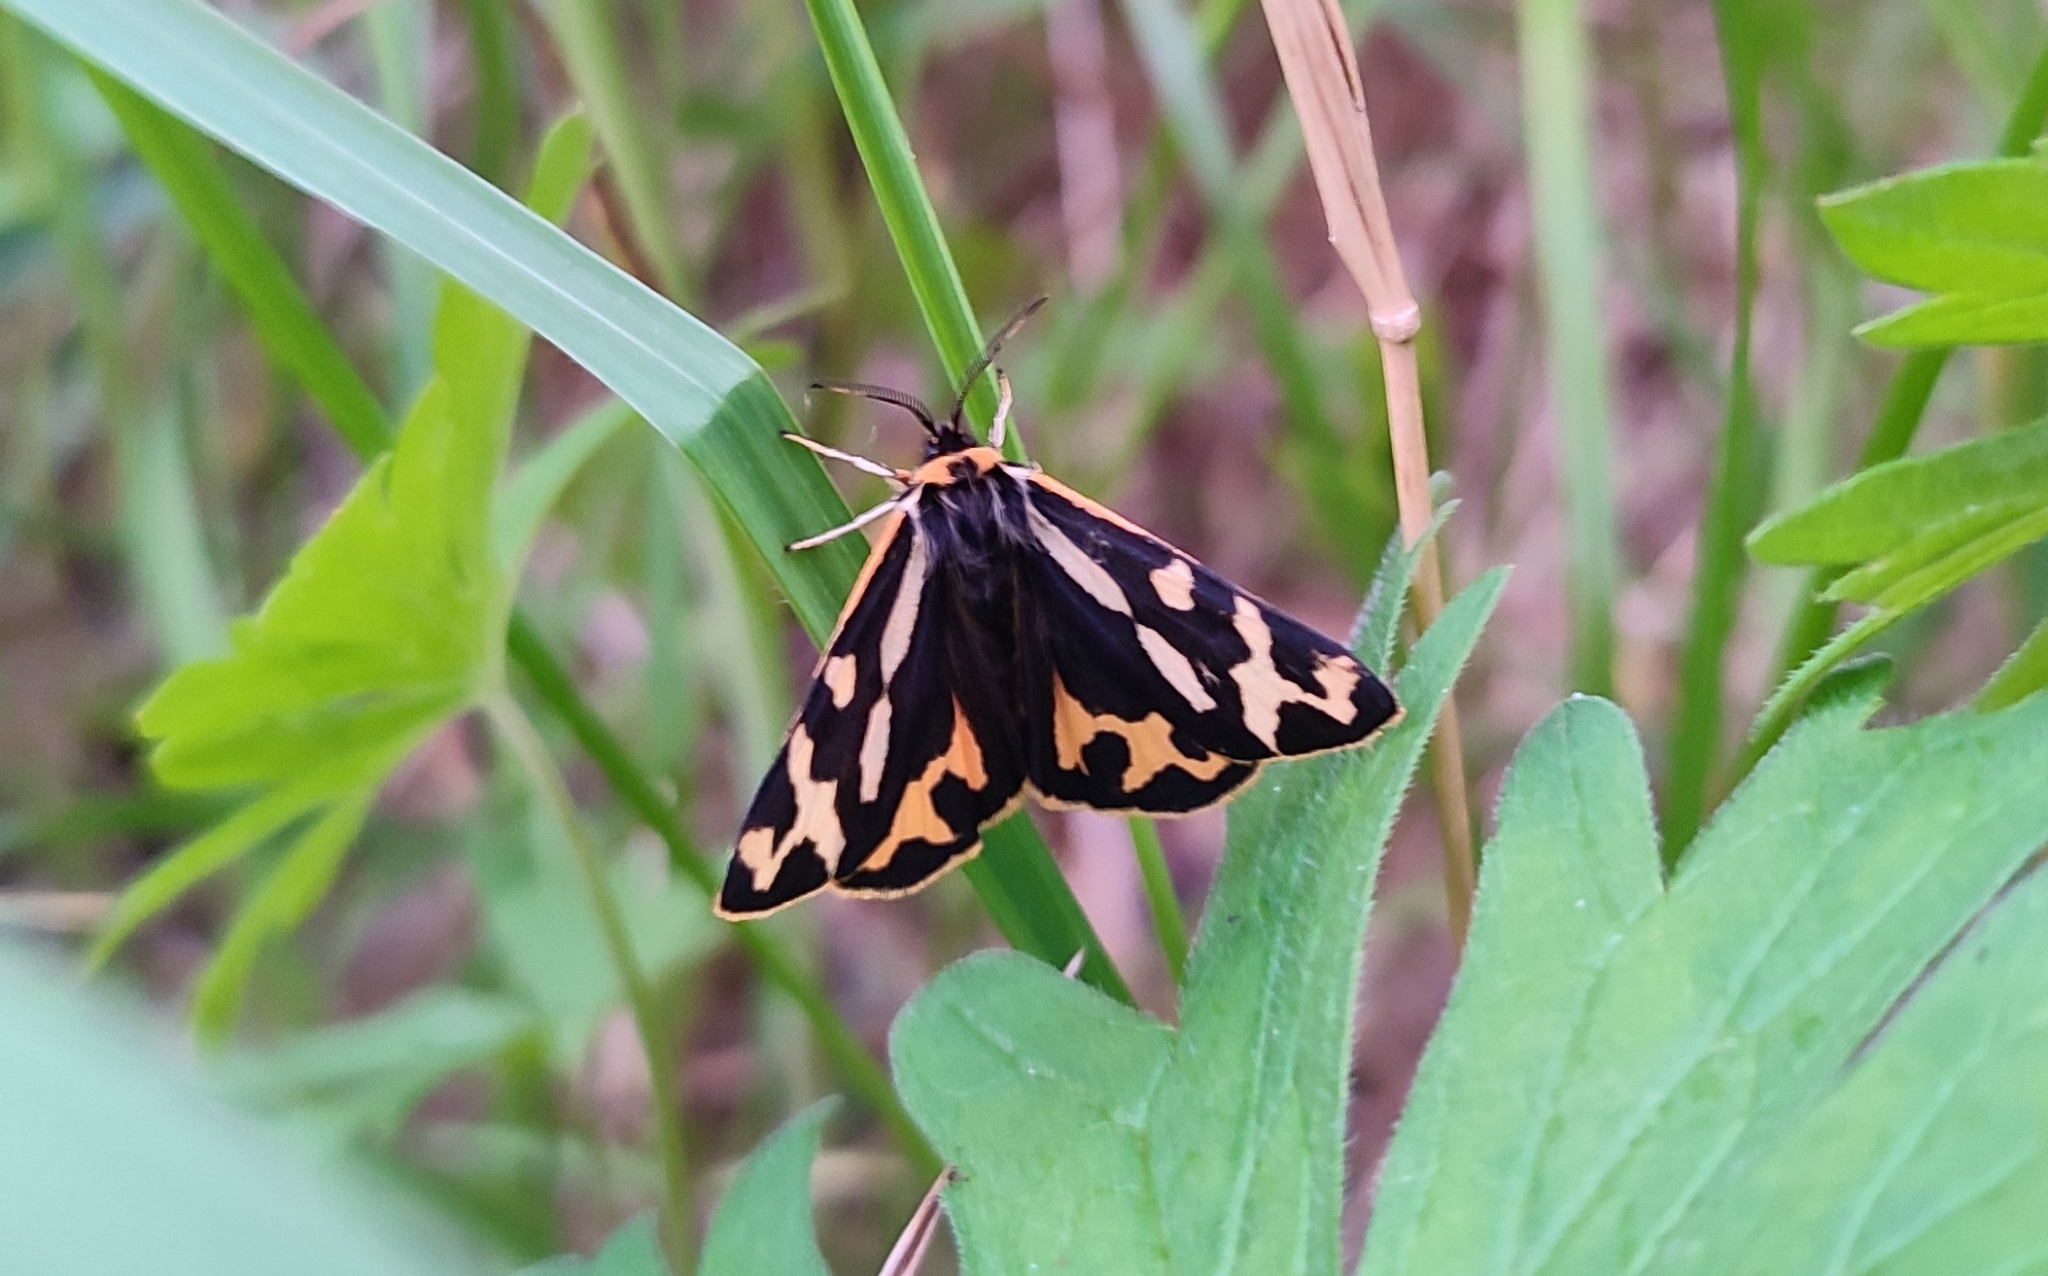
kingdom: Animalia
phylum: Arthropoda
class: Insecta
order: Lepidoptera
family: Erebidae
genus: Parasemia
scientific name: Parasemia plantaginis
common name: Wood tiger
